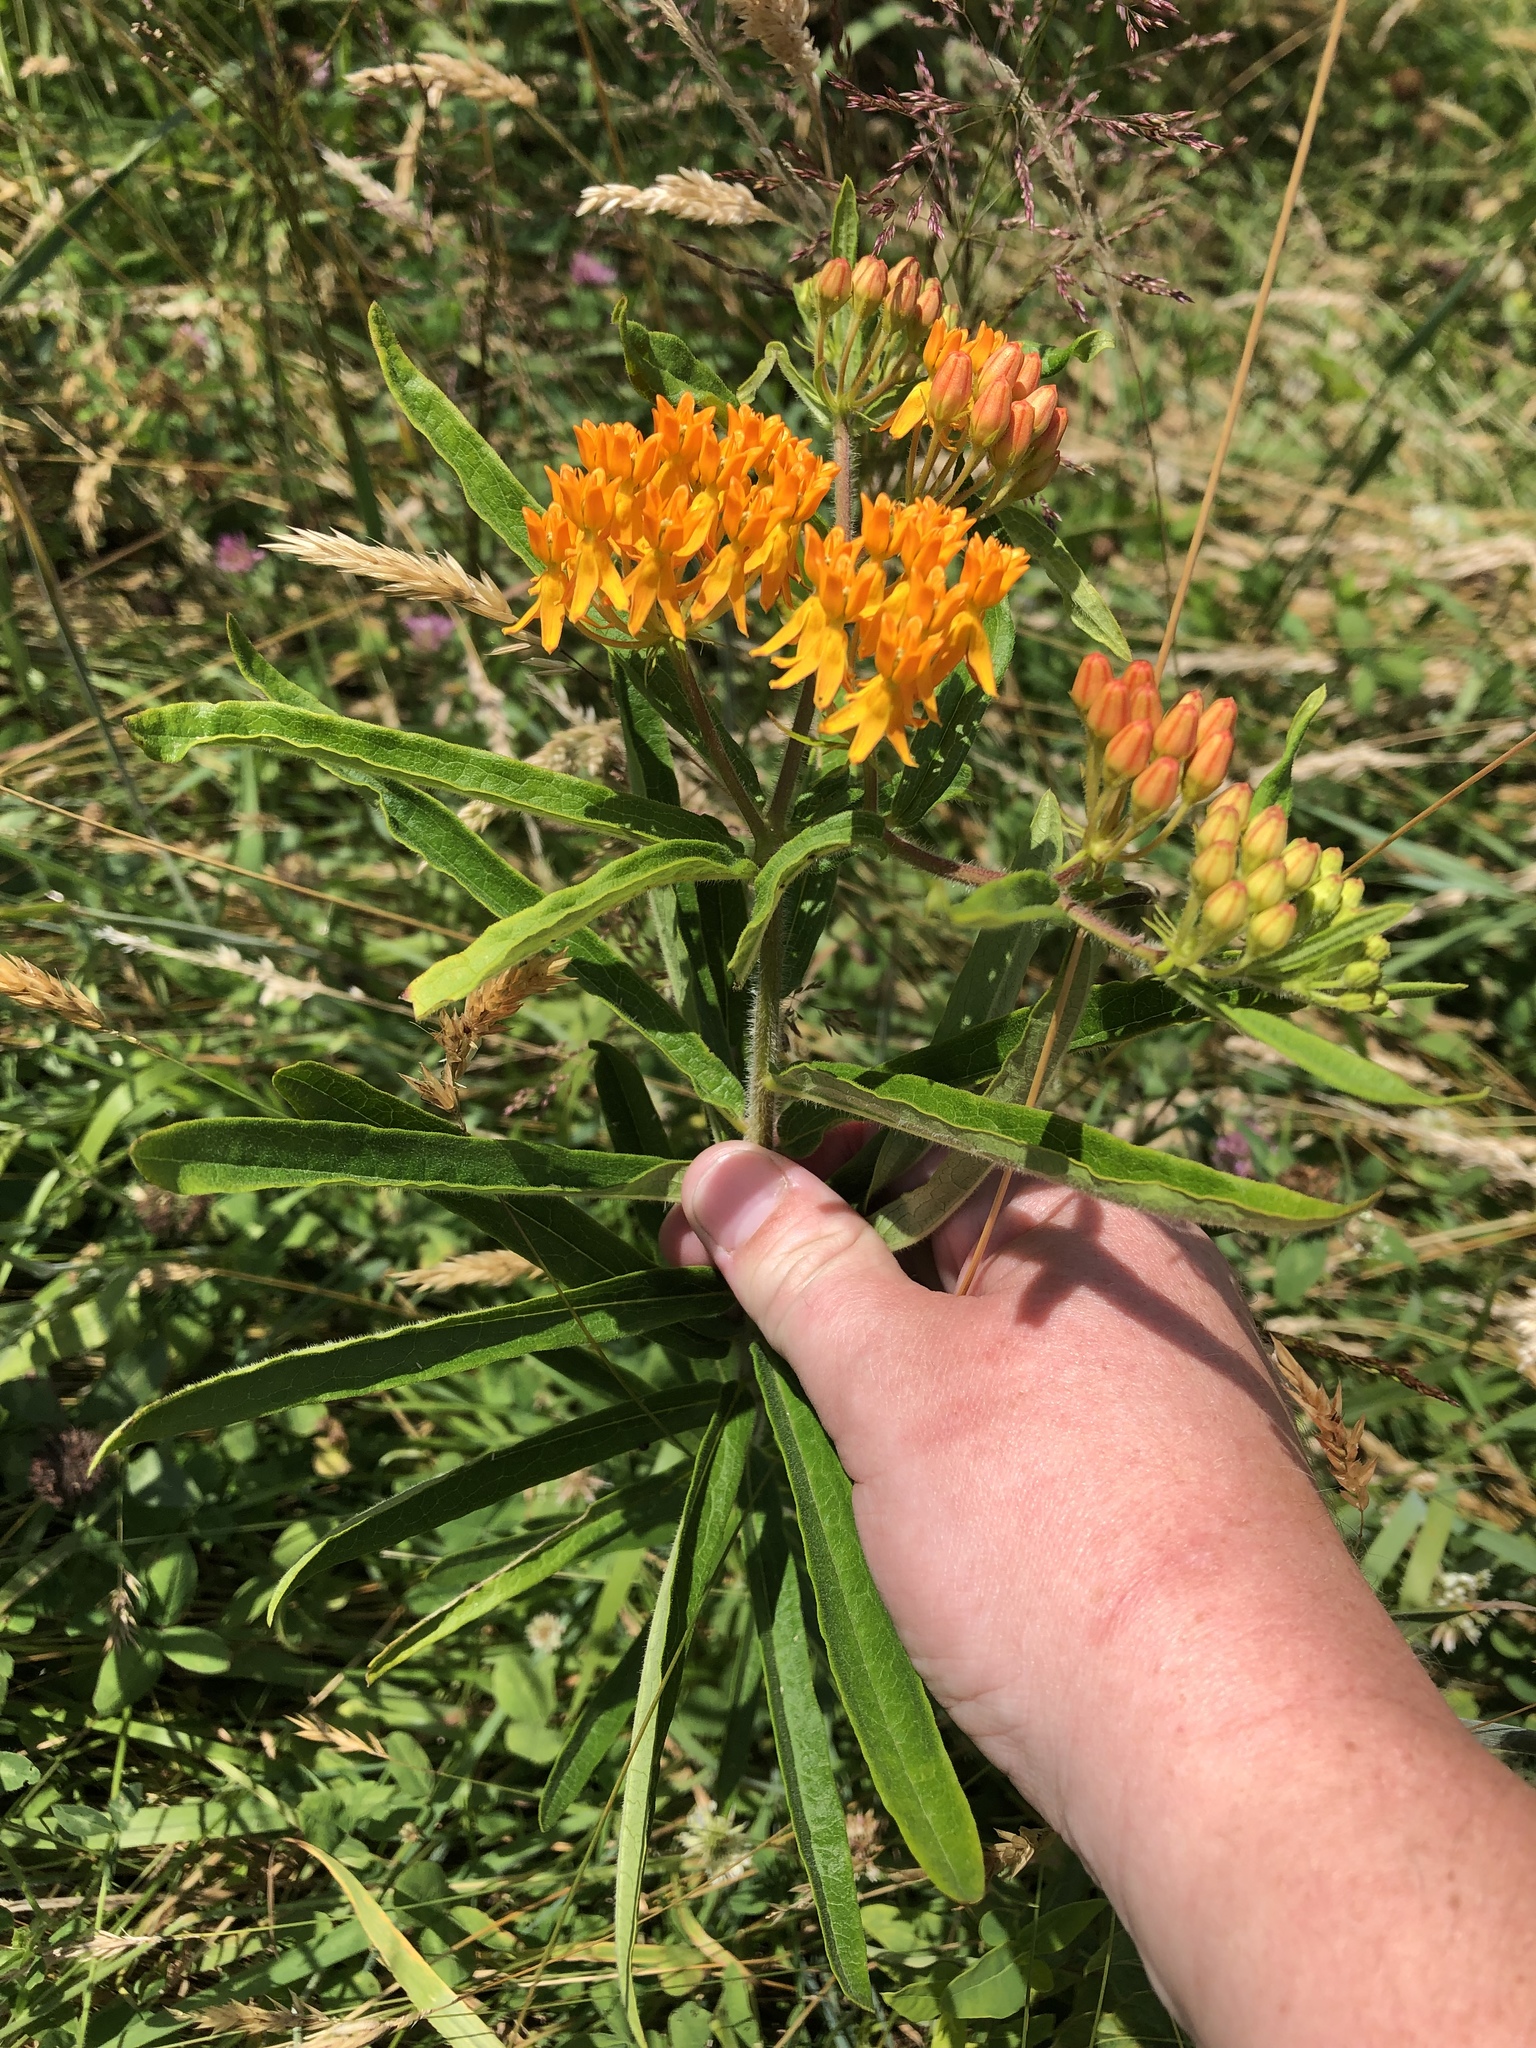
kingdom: Plantae
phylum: Tracheophyta
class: Magnoliopsida
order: Gentianales
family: Apocynaceae
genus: Asclepias
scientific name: Asclepias tuberosa
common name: Butterfly milkweed
